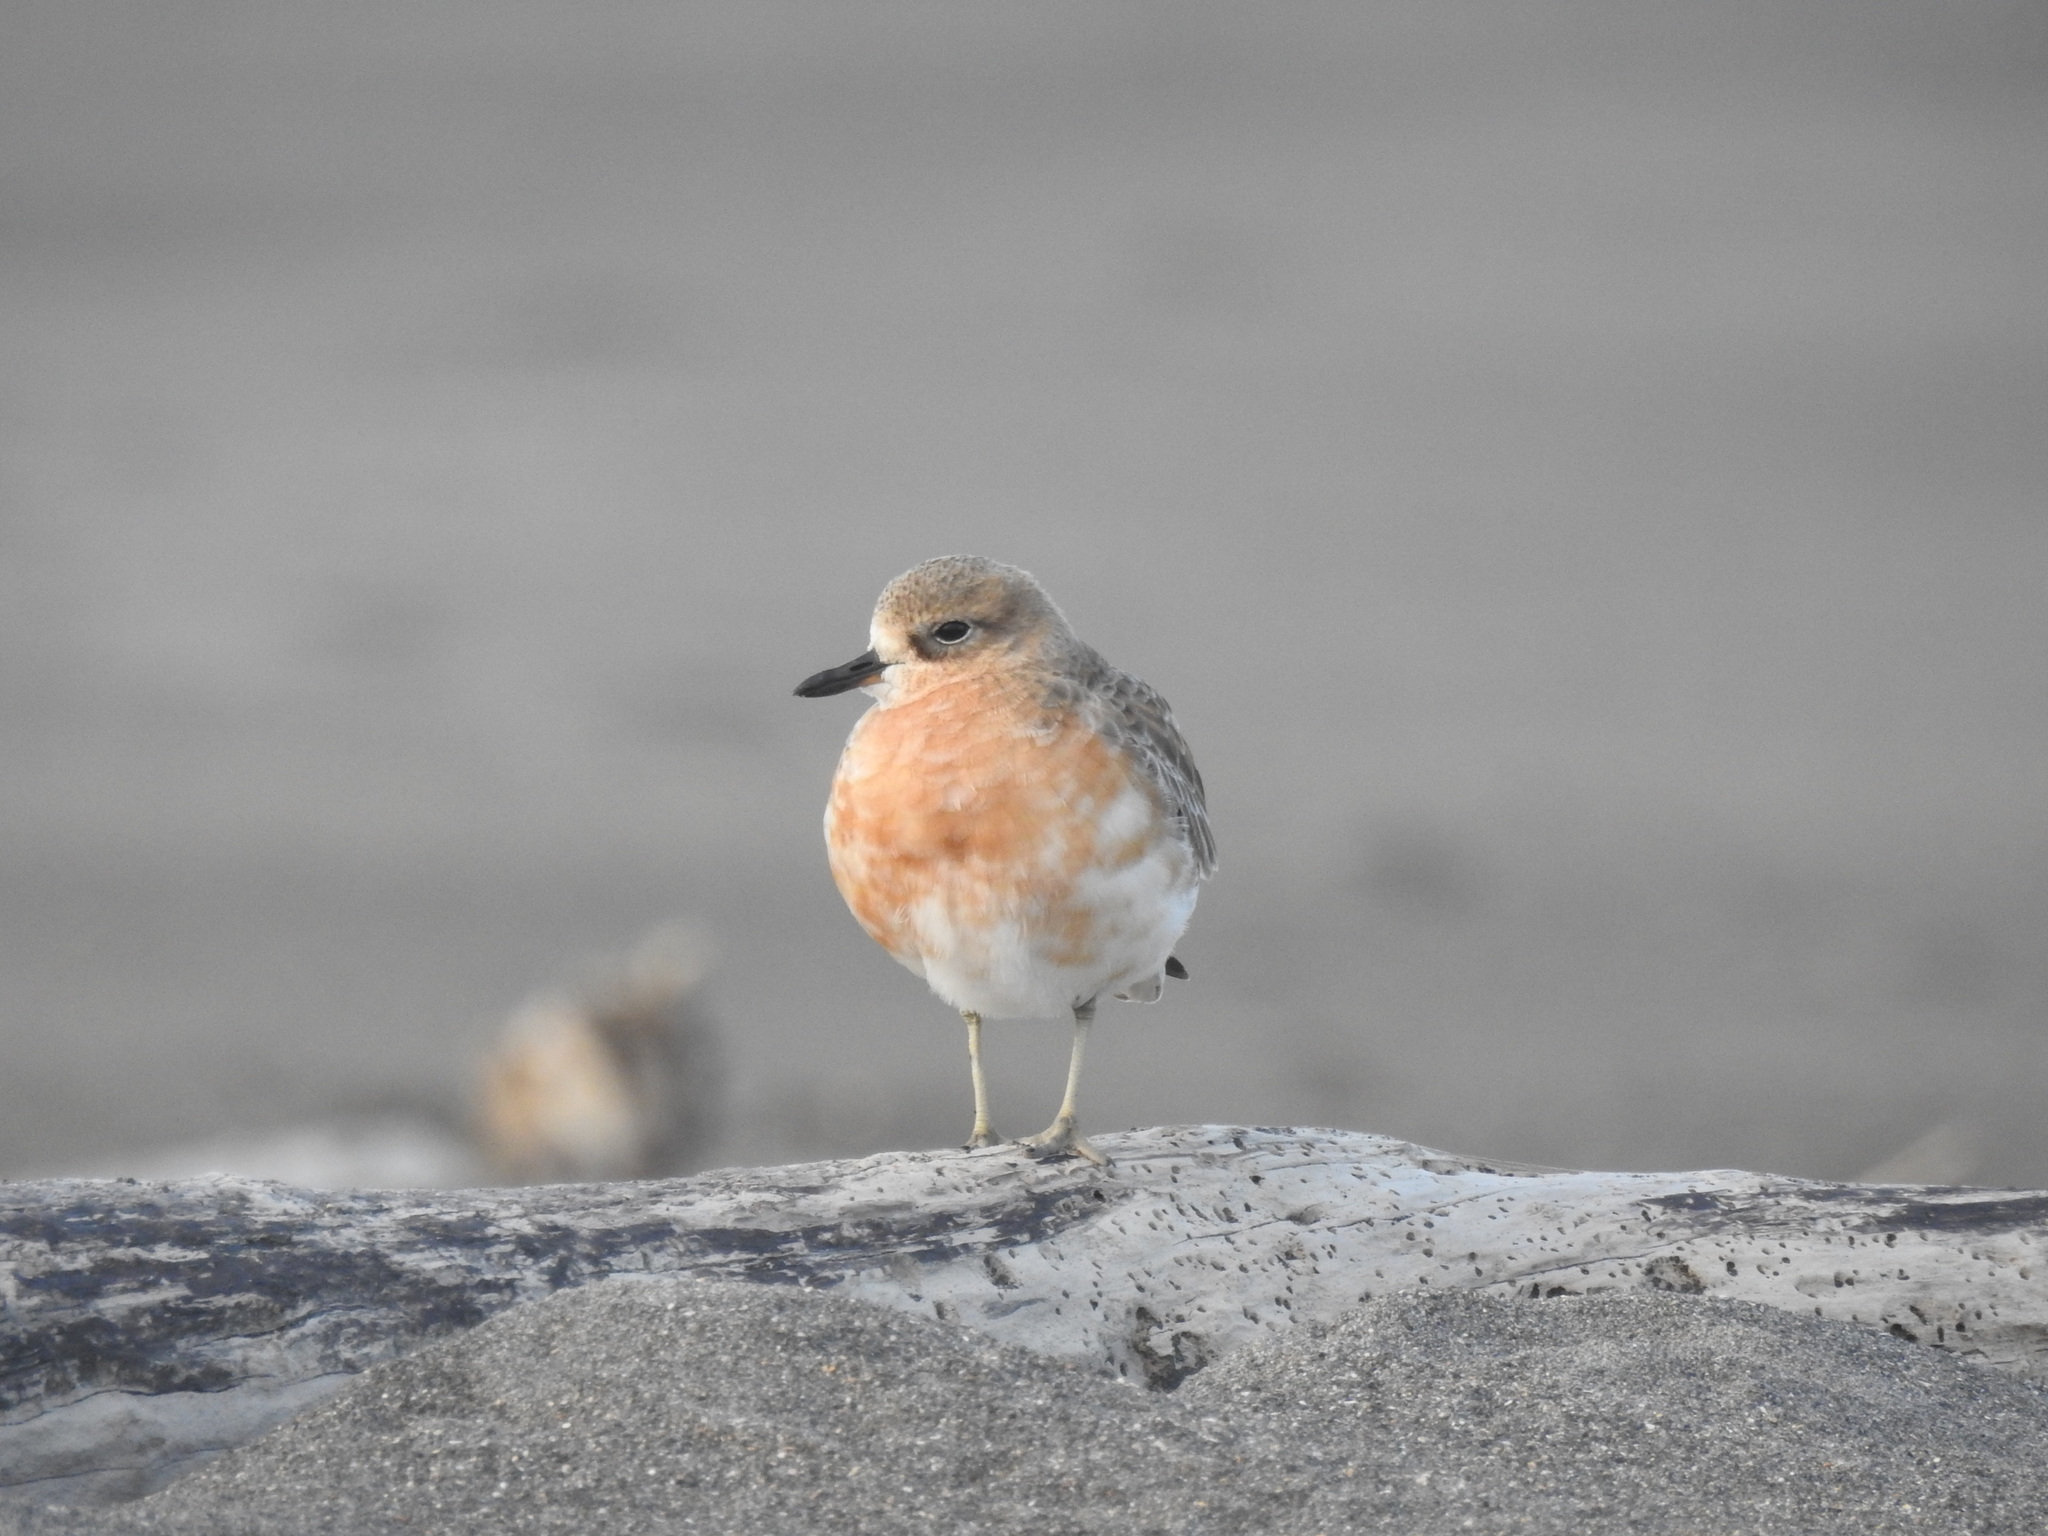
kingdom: Animalia
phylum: Chordata
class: Aves
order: Charadriiformes
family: Charadriidae
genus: Anarhynchus
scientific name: Anarhynchus
